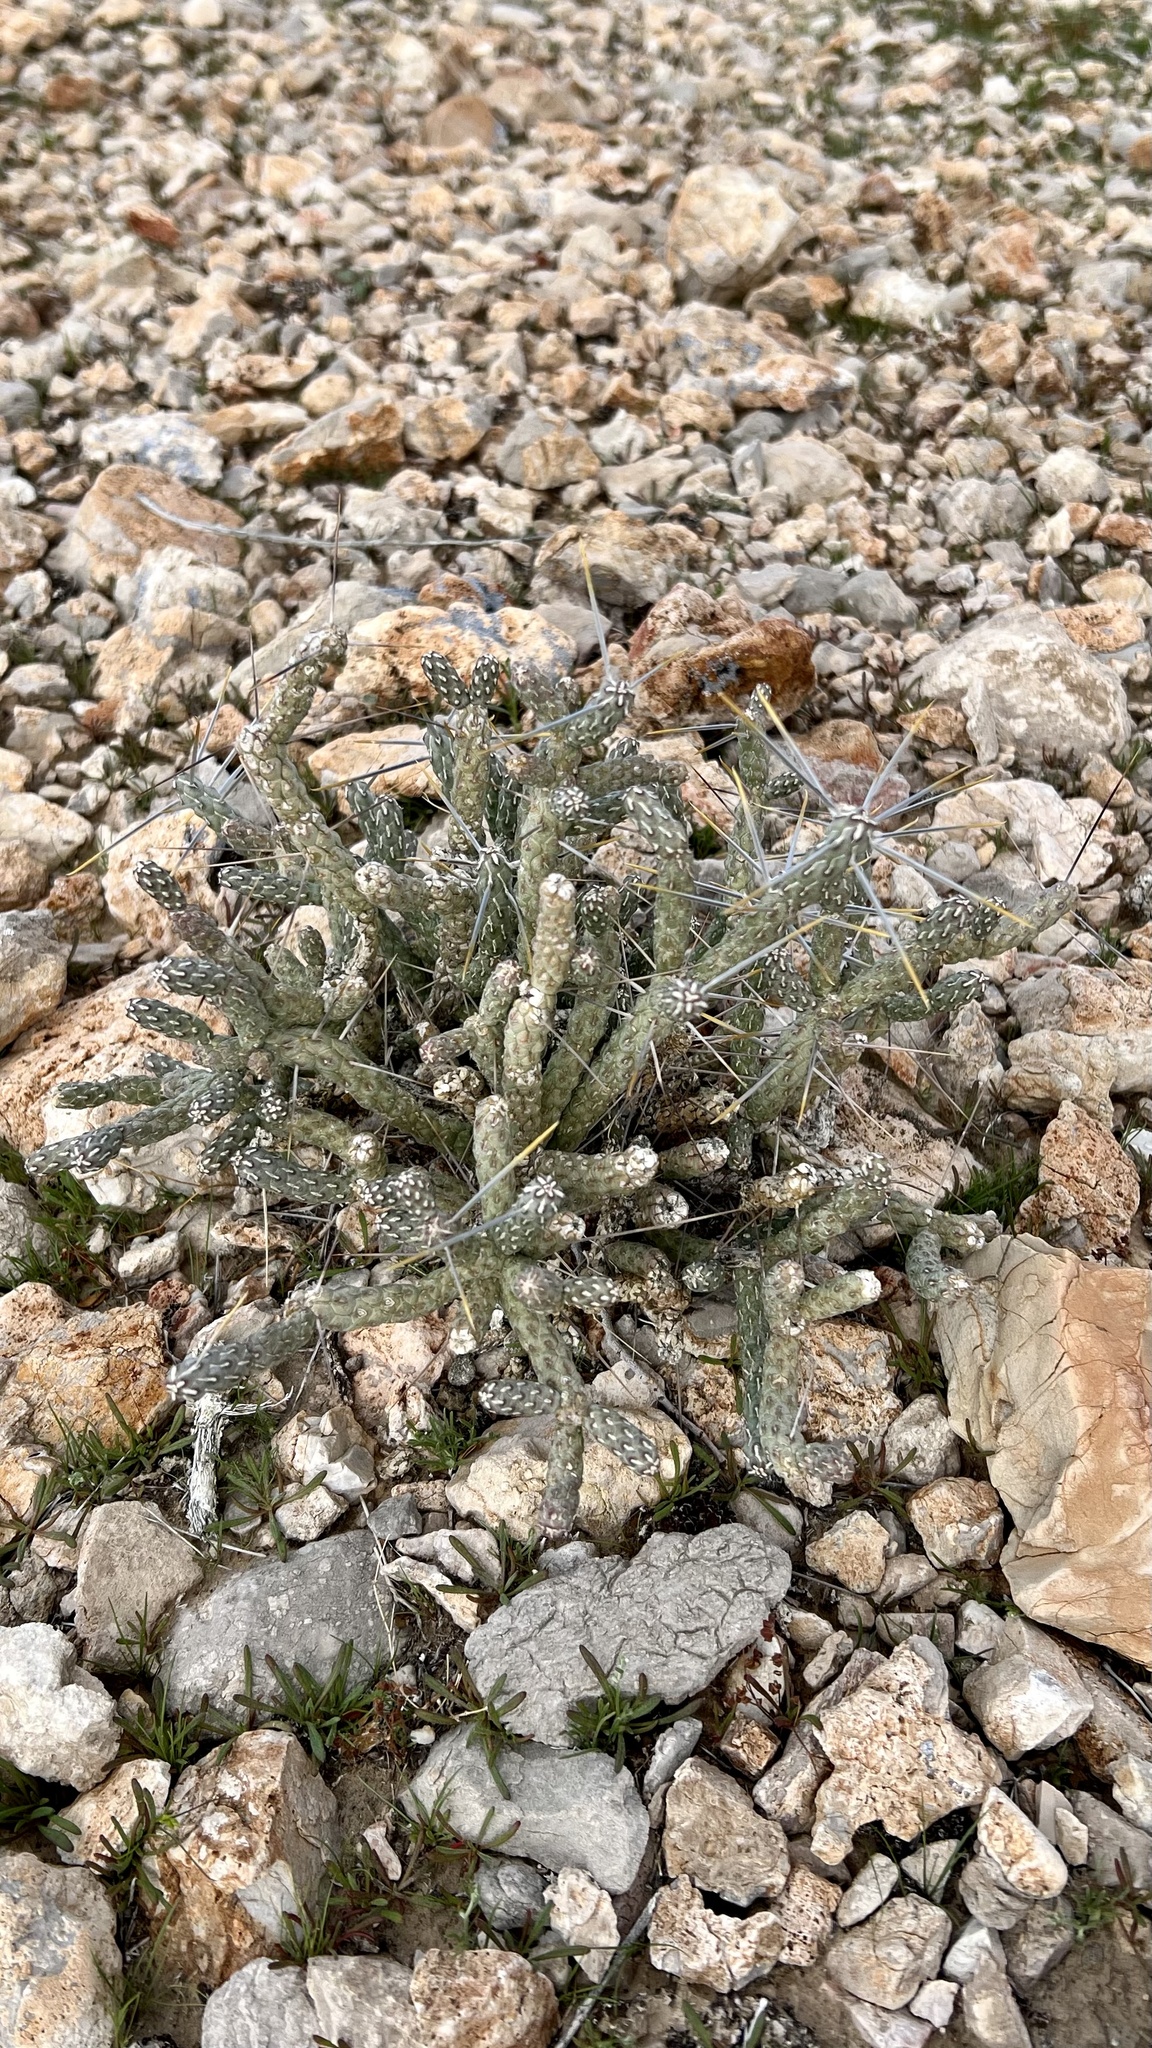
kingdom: Plantae
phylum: Tracheophyta
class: Magnoliopsida
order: Caryophyllales
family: Cactaceae
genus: Cylindropuntia
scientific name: Cylindropuntia ramosissima
